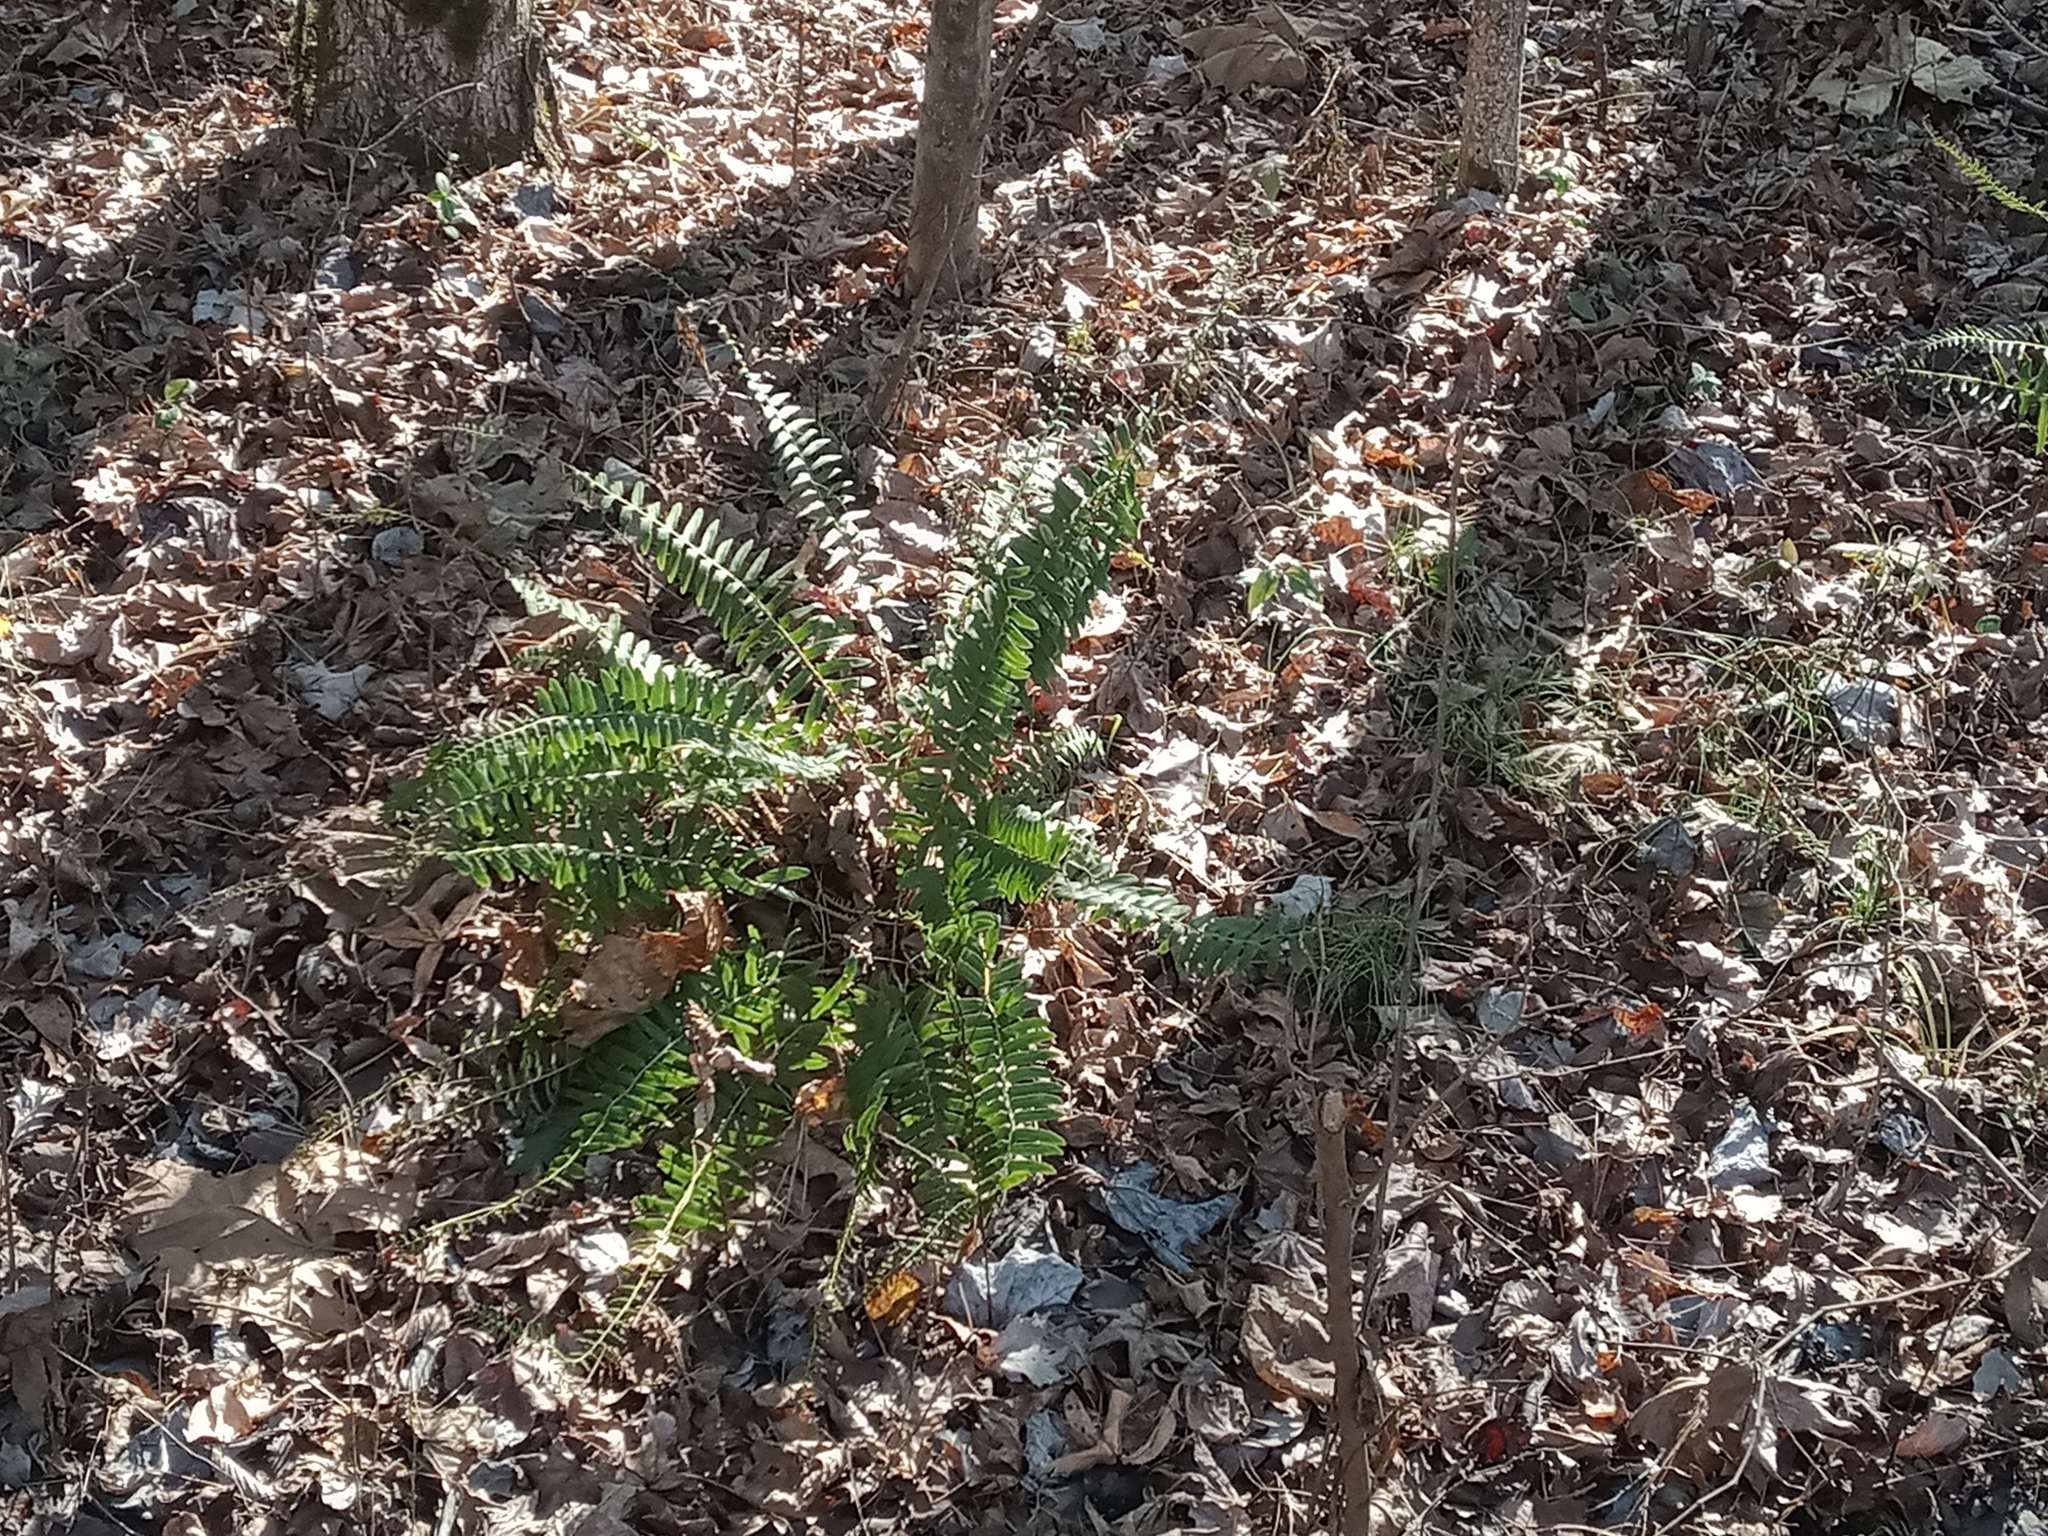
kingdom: Plantae
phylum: Tracheophyta
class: Polypodiopsida
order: Polypodiales
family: Dryopteridaceae
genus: Polystichum
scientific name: Polystichum acrostichoides
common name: Christmas fern
